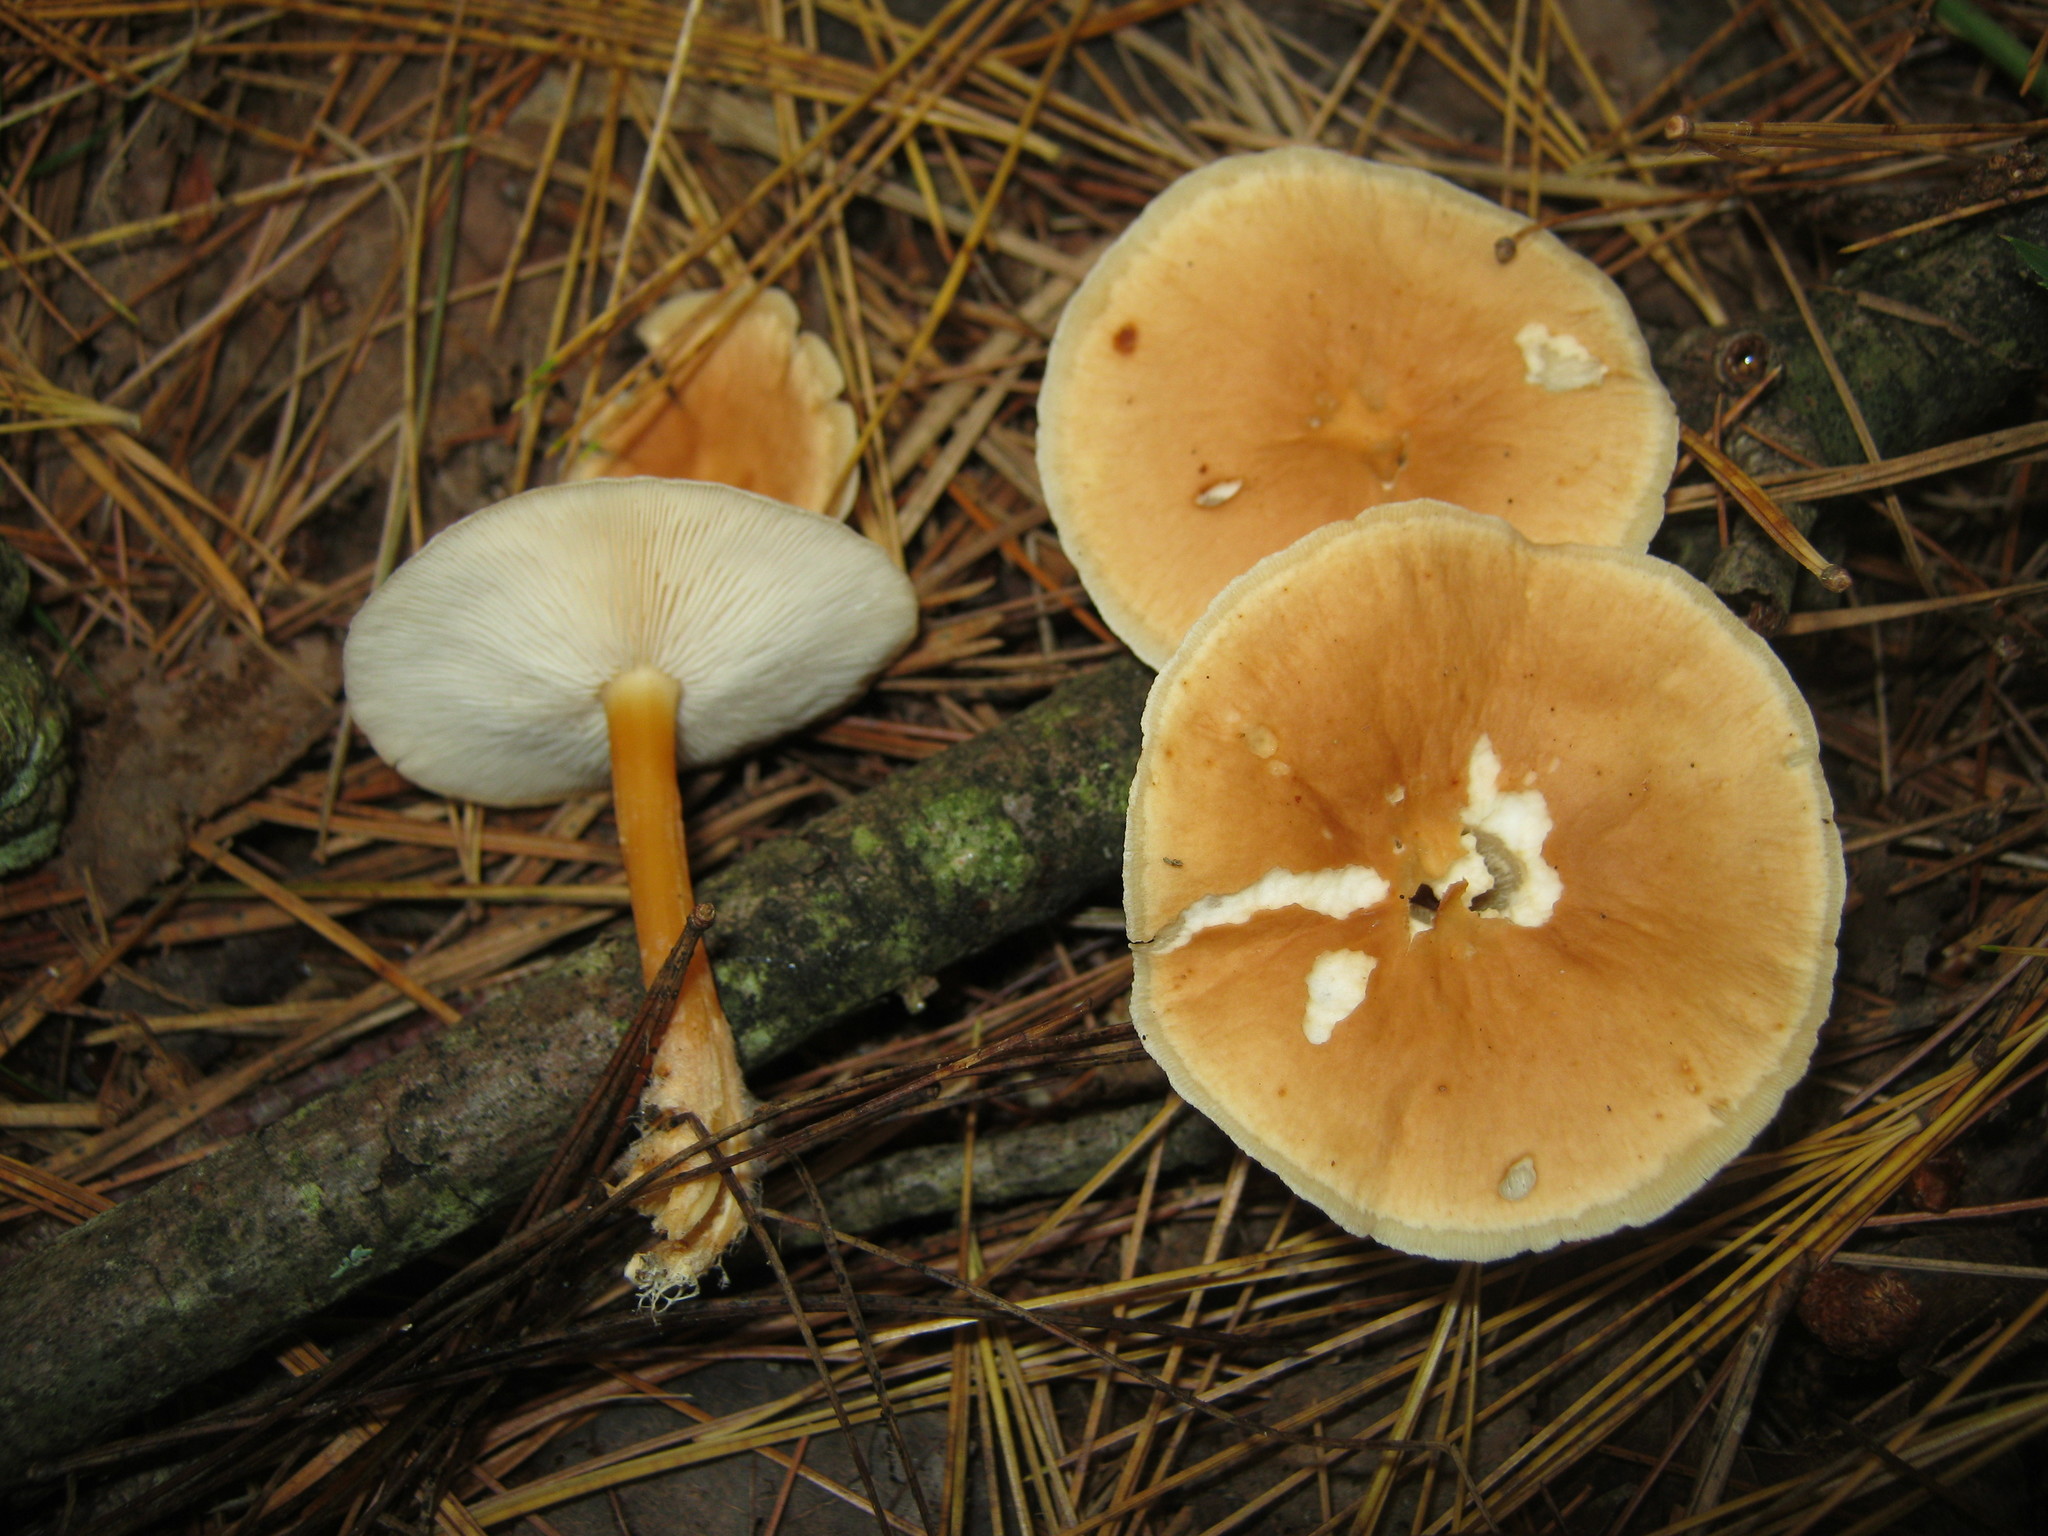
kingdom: Fungi
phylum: Basidiomycota
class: Agaricomycetes
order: Agaricales
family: Omphalotaceae
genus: Gymnopus
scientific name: Gymnopus dryophilus
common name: Penny top
